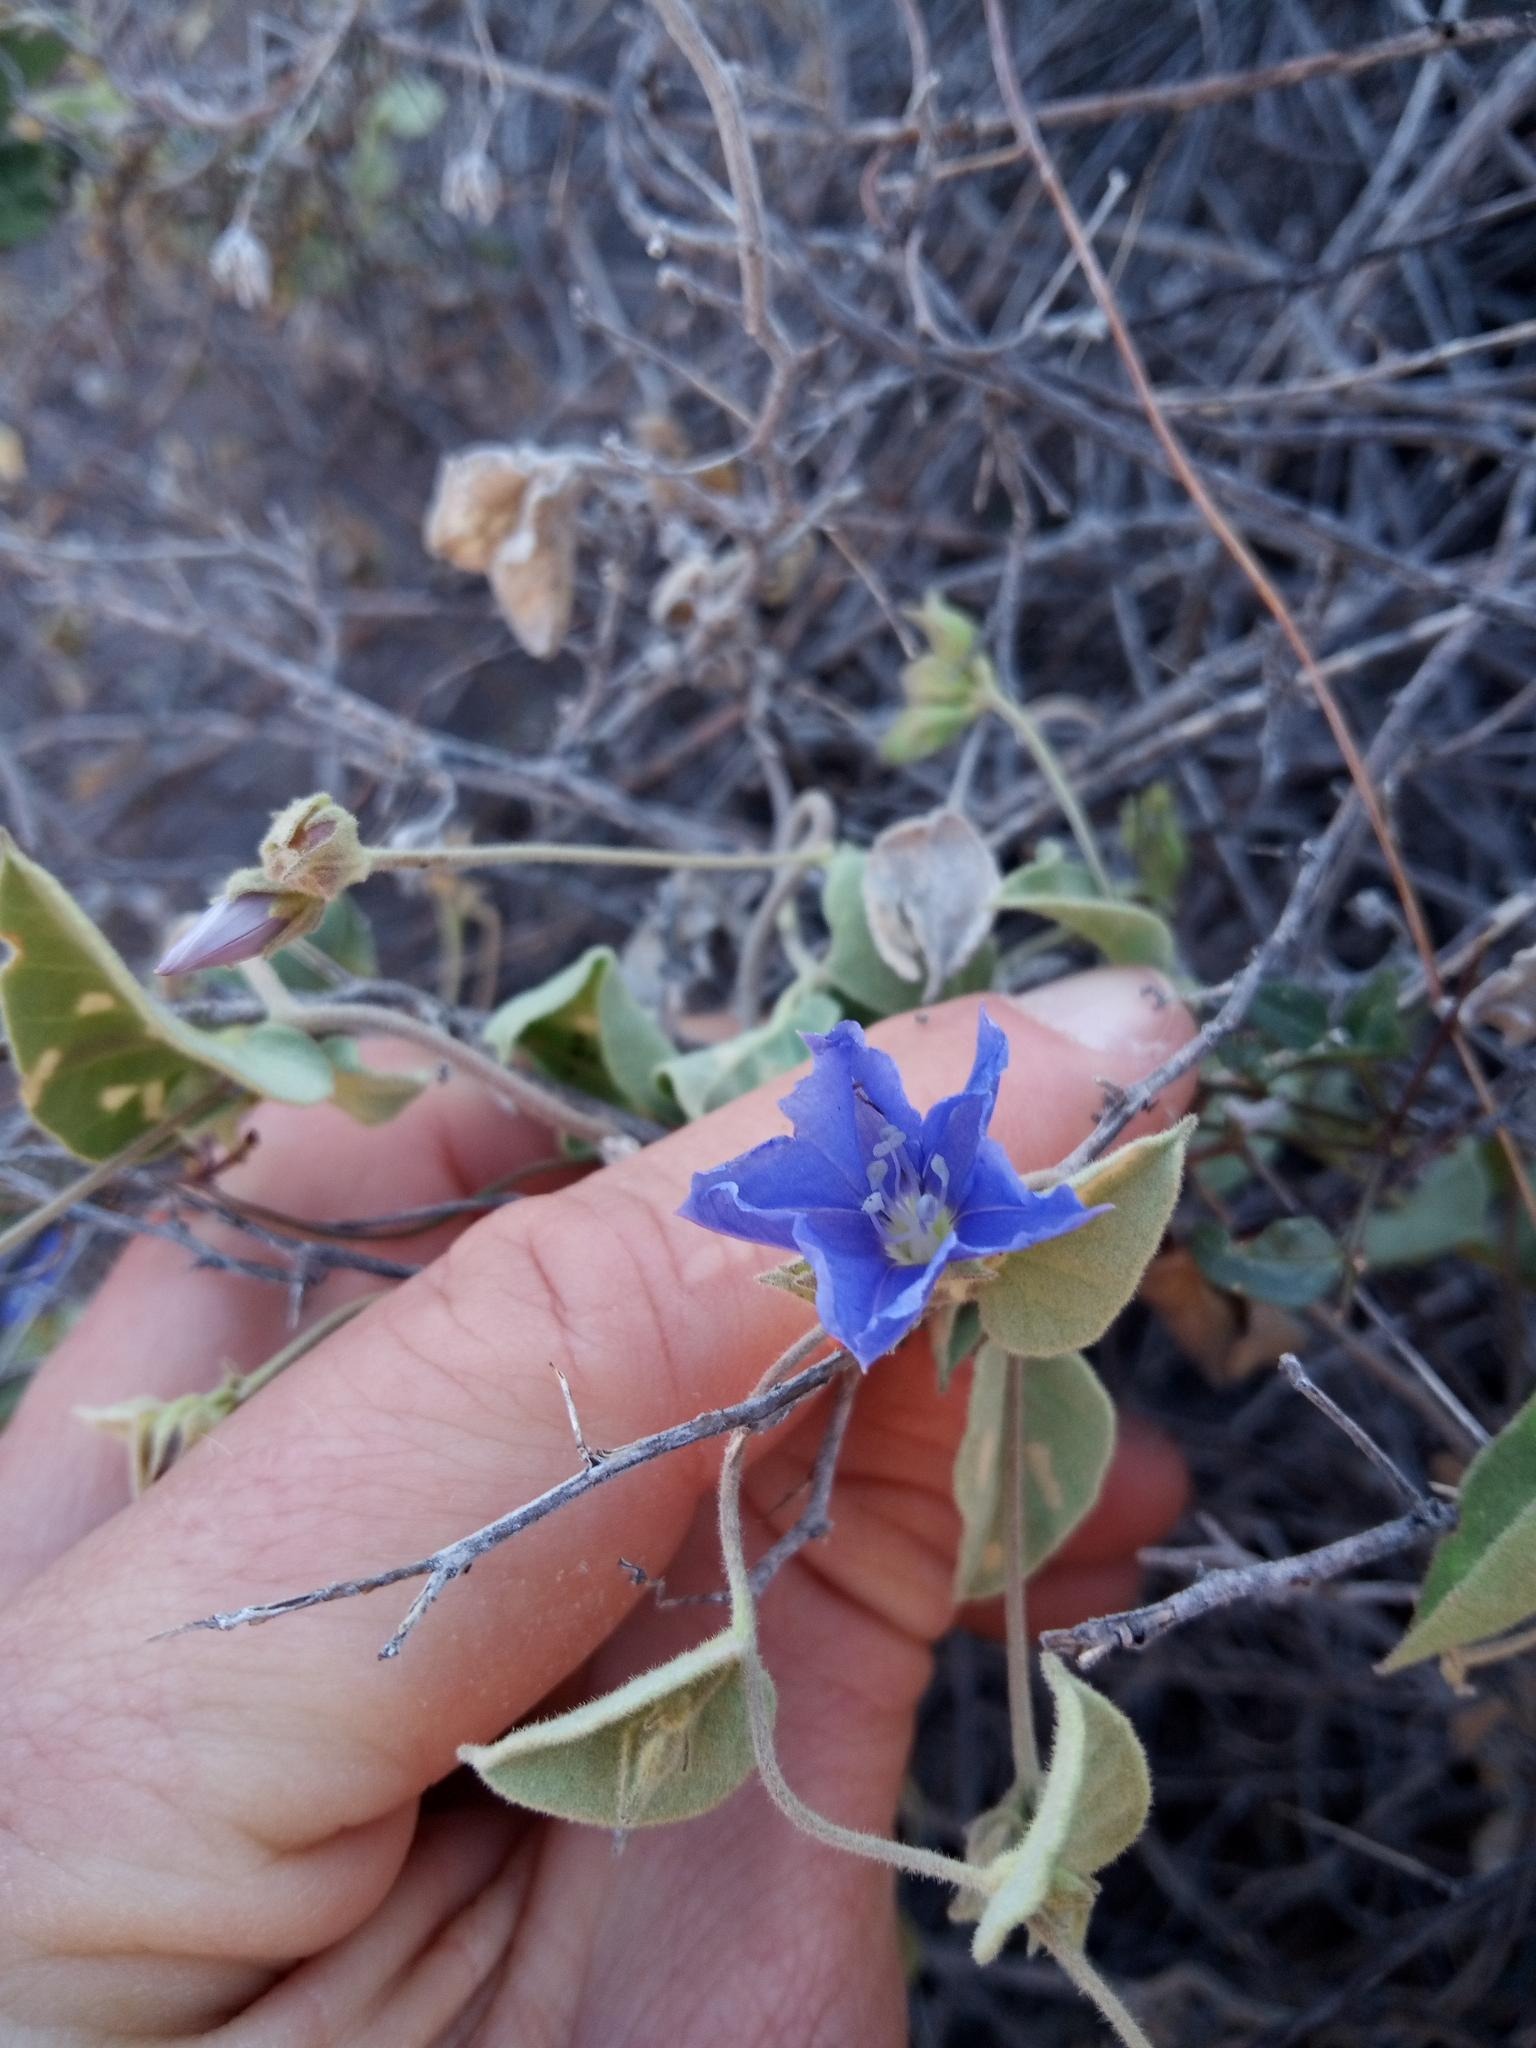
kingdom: Plantae
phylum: Tracheophyta
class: Magnoliopsida
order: Solanales
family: Convolvulaceae
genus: Jacquemontia
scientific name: Jacquemontia abutiloides
